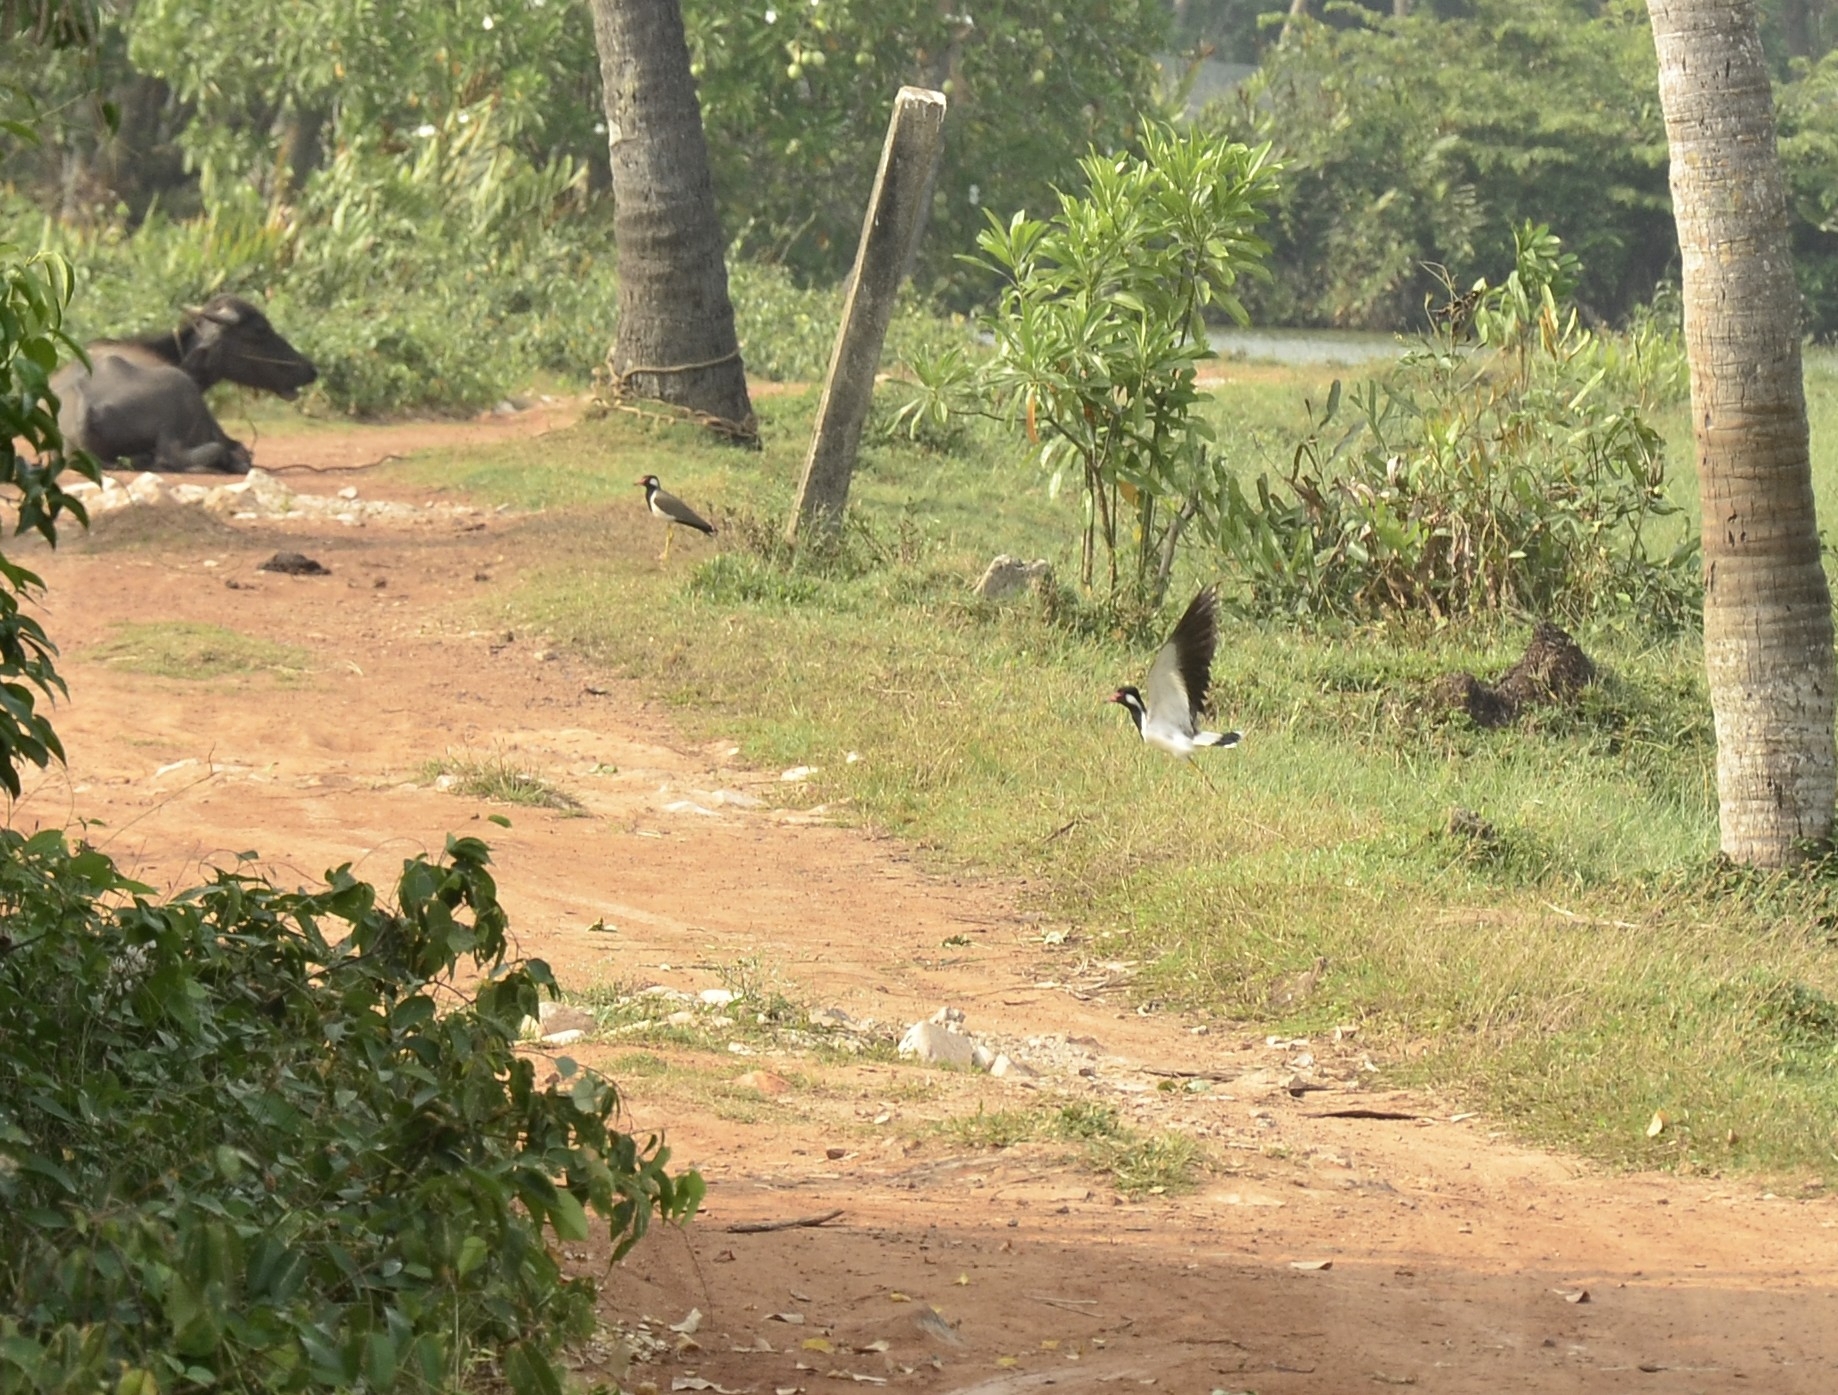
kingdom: Animalia
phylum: Chordata
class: Aves
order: Charadriiformes
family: Charadriidae
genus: Vanellus
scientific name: Vanellus indicus
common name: Red-wattled lapwing
